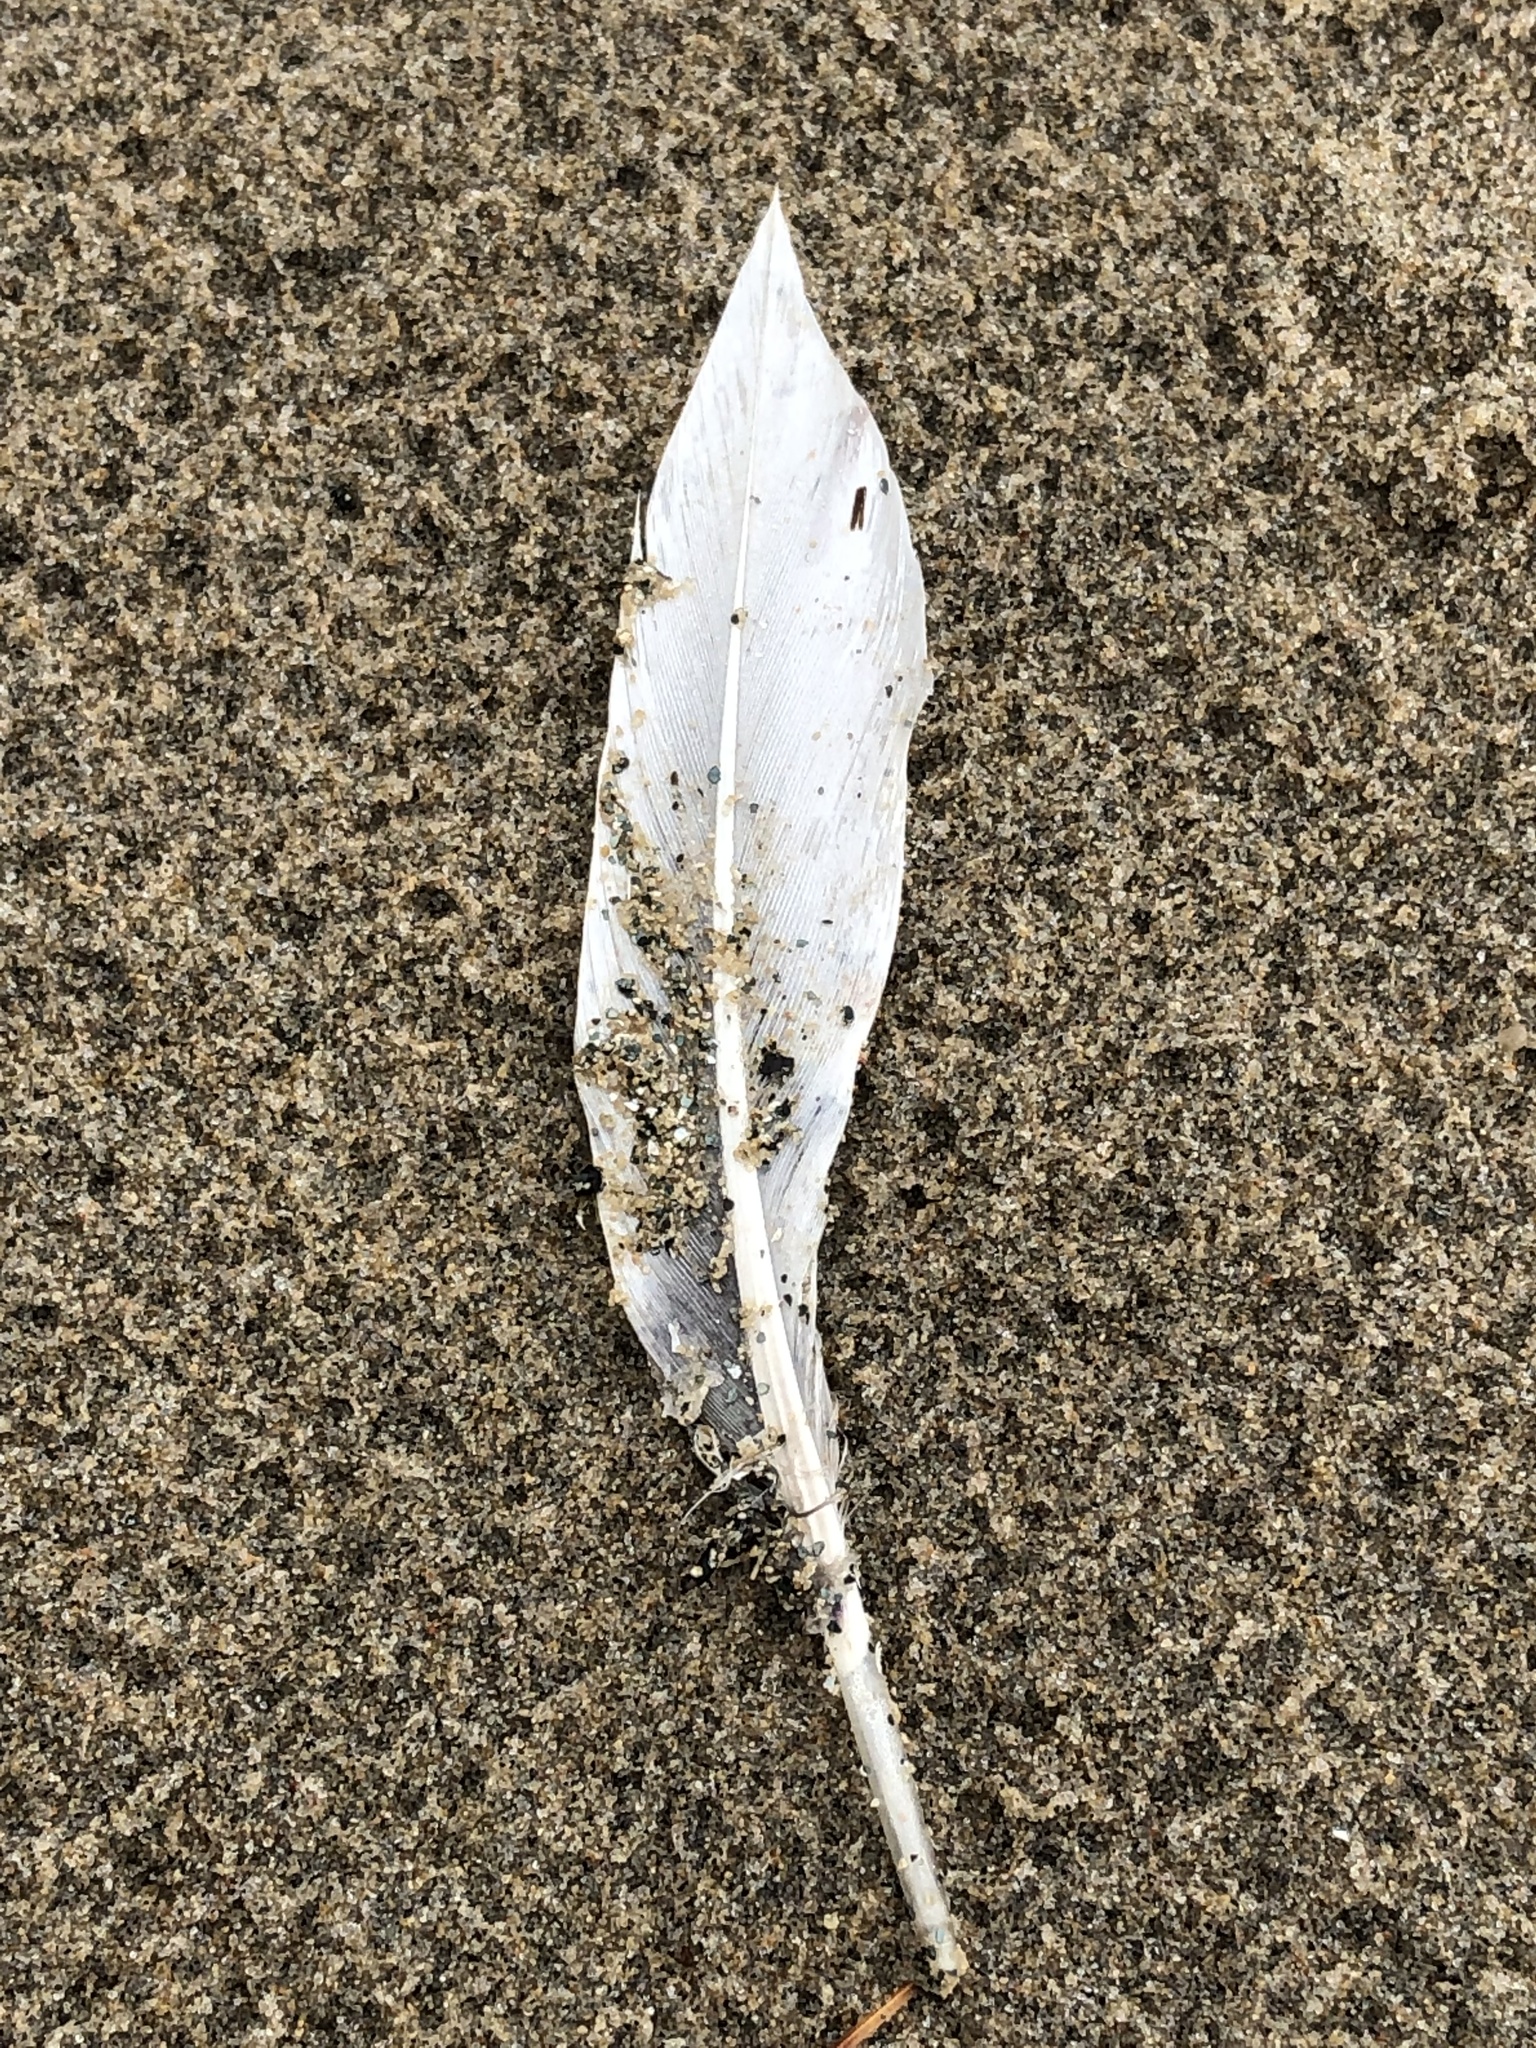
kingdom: Animalia
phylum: Chordata
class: Aves
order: Anseriformes
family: Anatidae
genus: Clangula
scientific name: Clangula hyemalis
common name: Long-tailed duck
